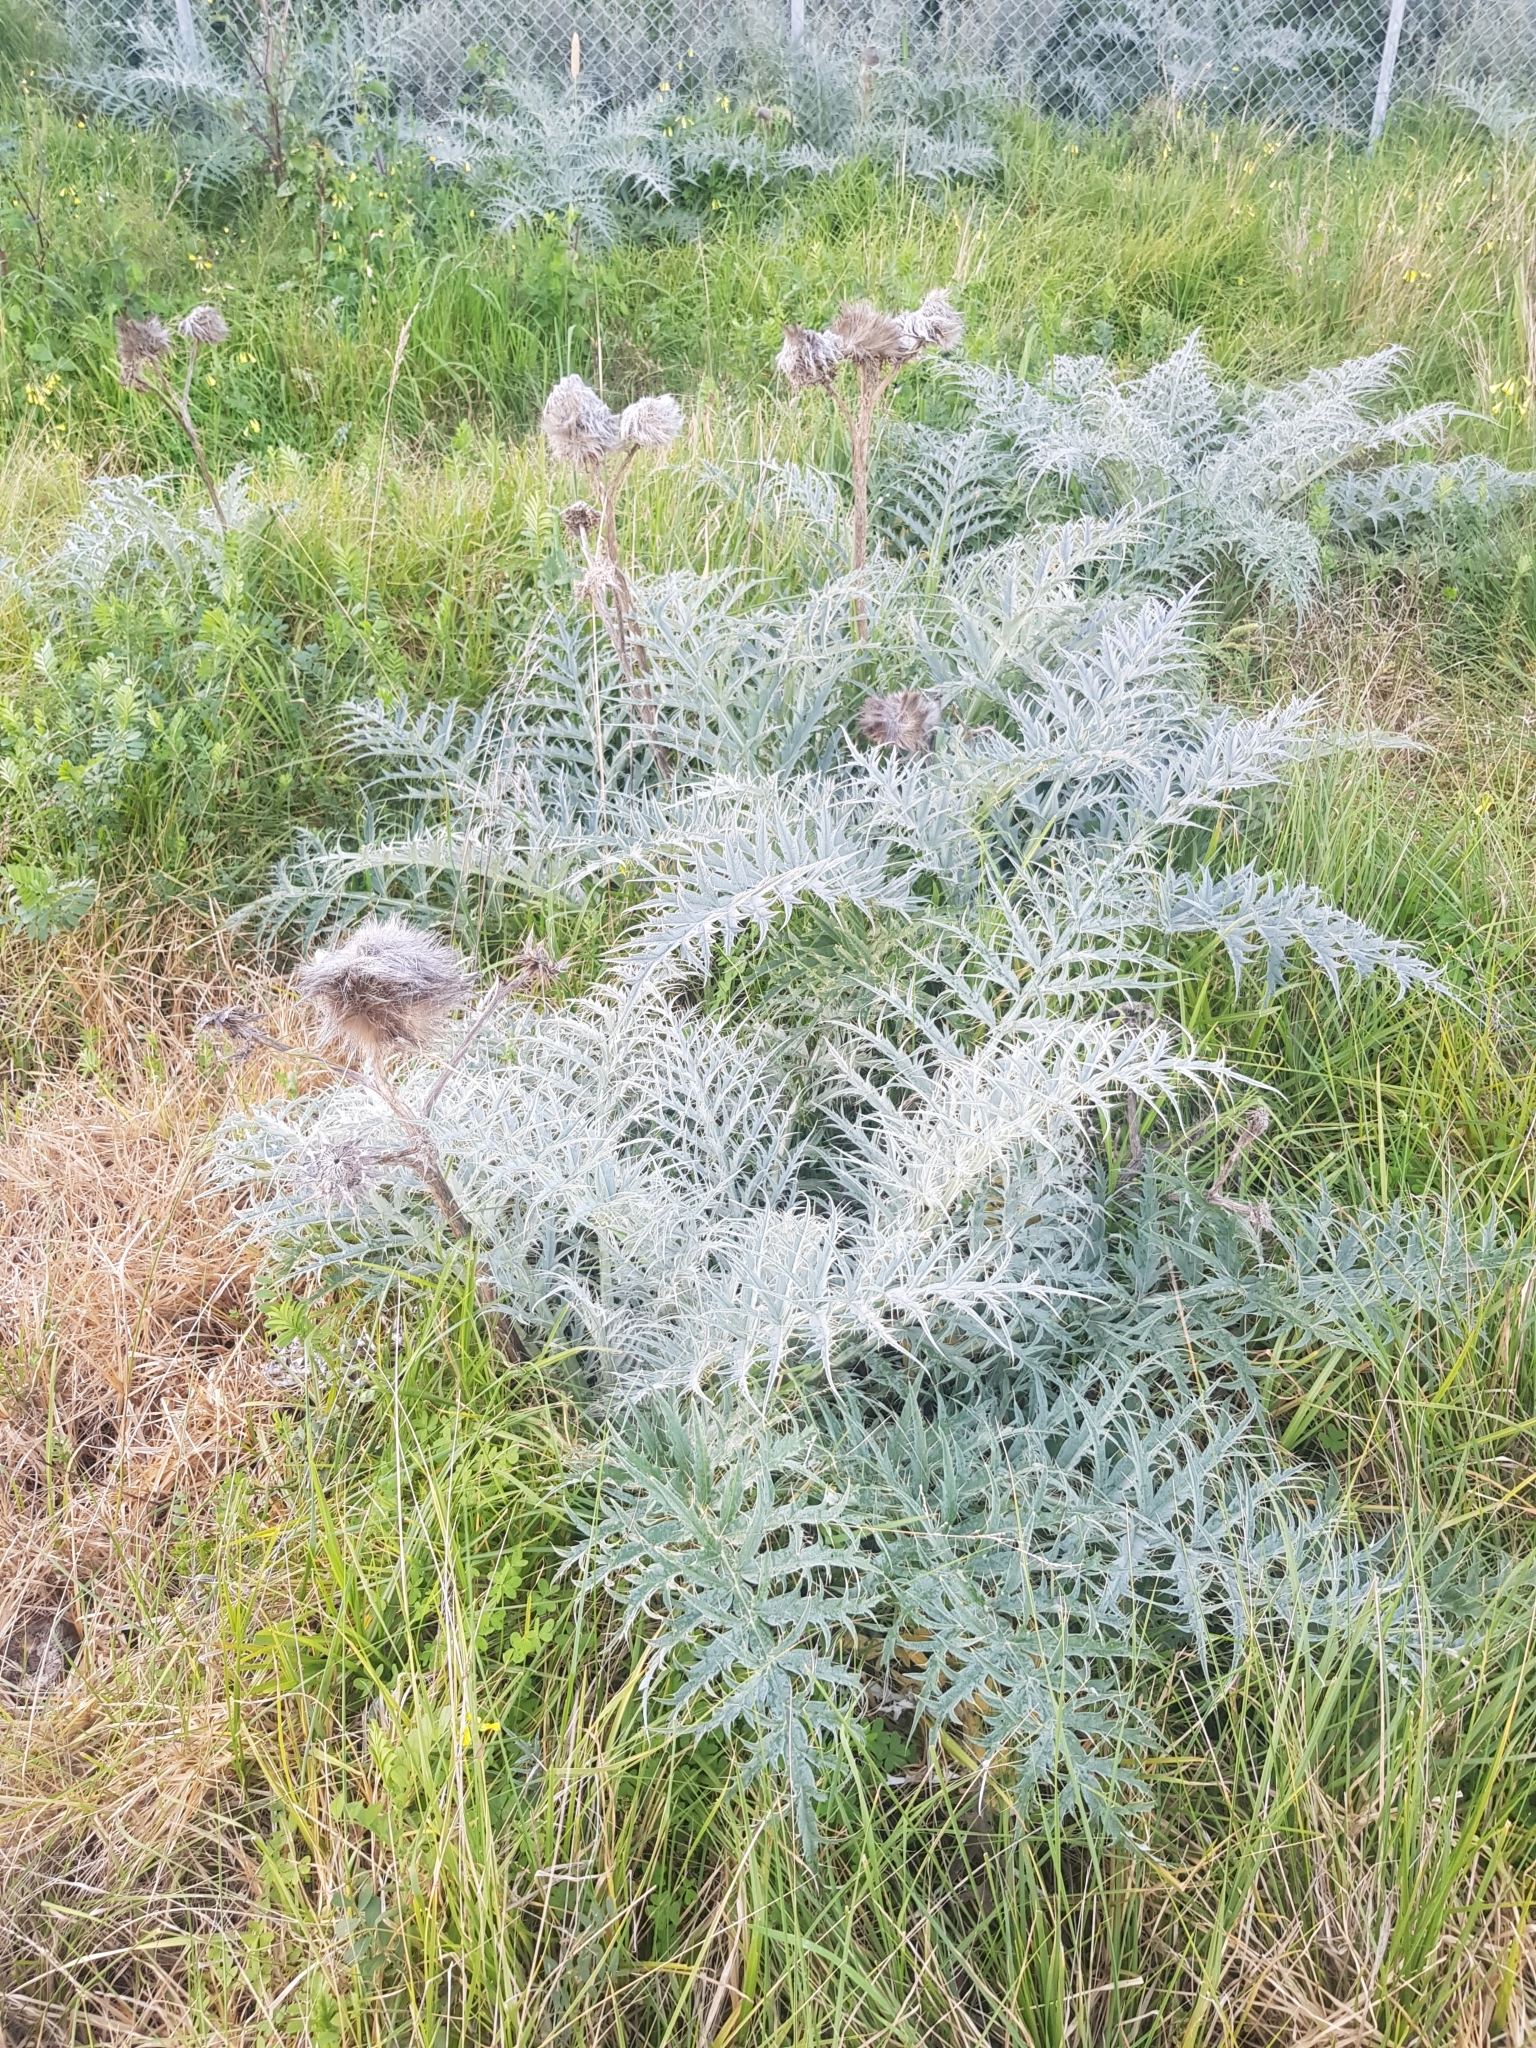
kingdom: Plantae
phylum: Tracheophyta
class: Magnoliopsida
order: Asterales
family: Asteraceae
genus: Cynara
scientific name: Cynara cardunculus
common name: Globe artichoke
